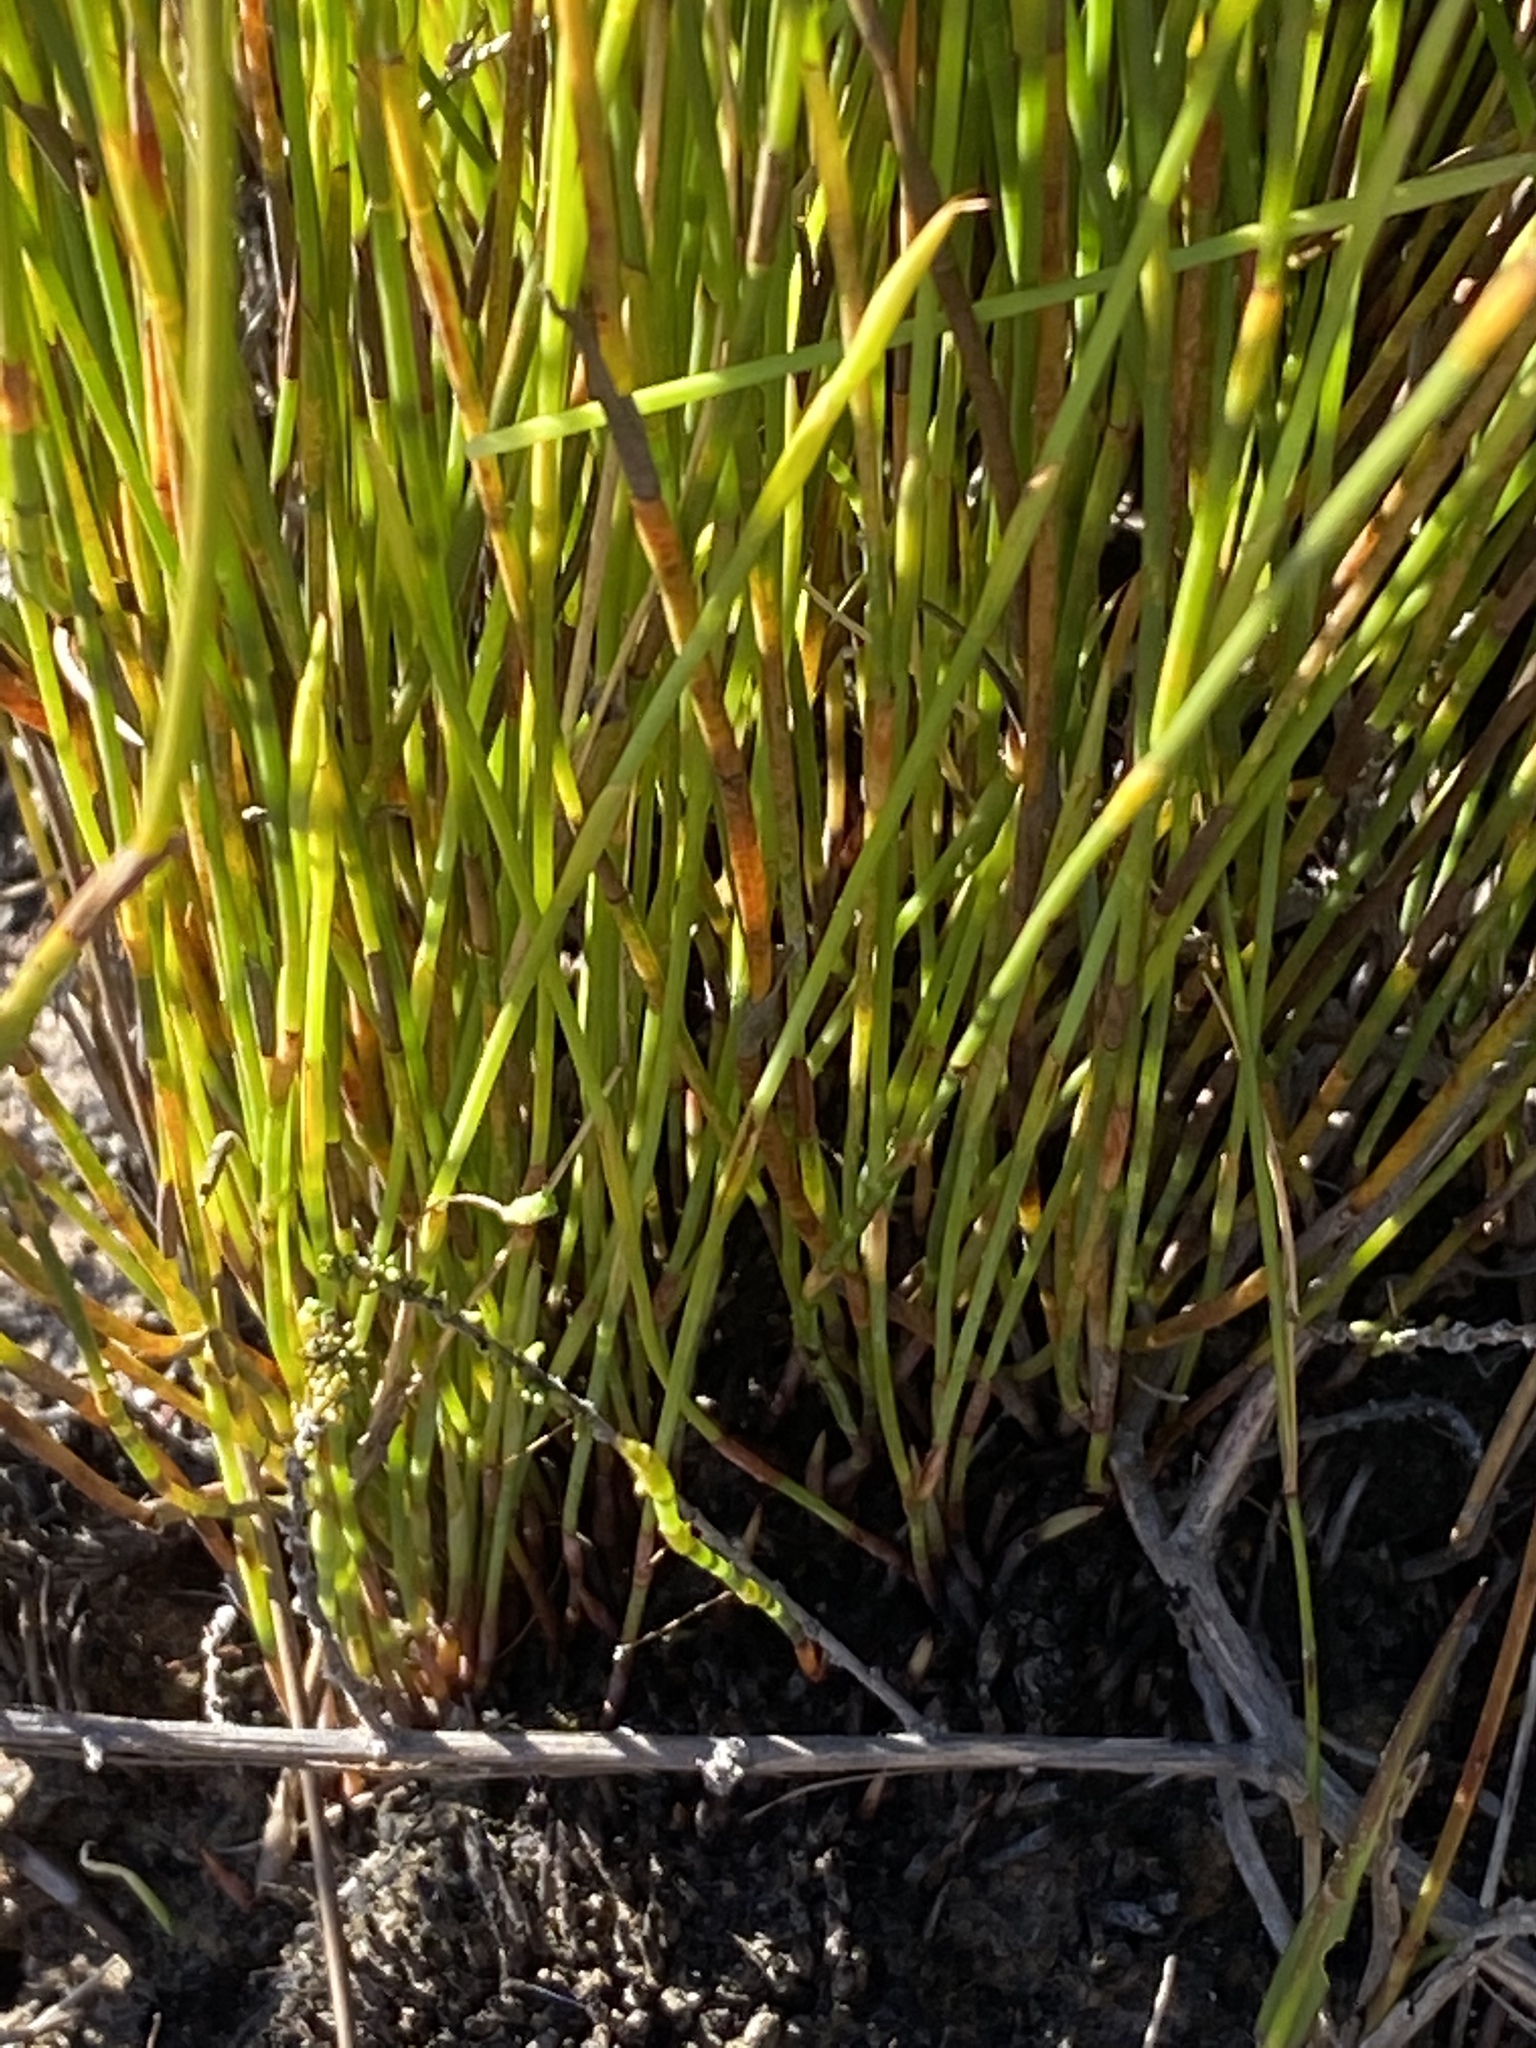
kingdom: Plantae
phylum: Tracheophyta
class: Liliopsida
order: Poales
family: Restionaceae
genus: Hypodiscus
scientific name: Hypodiscus striatus
